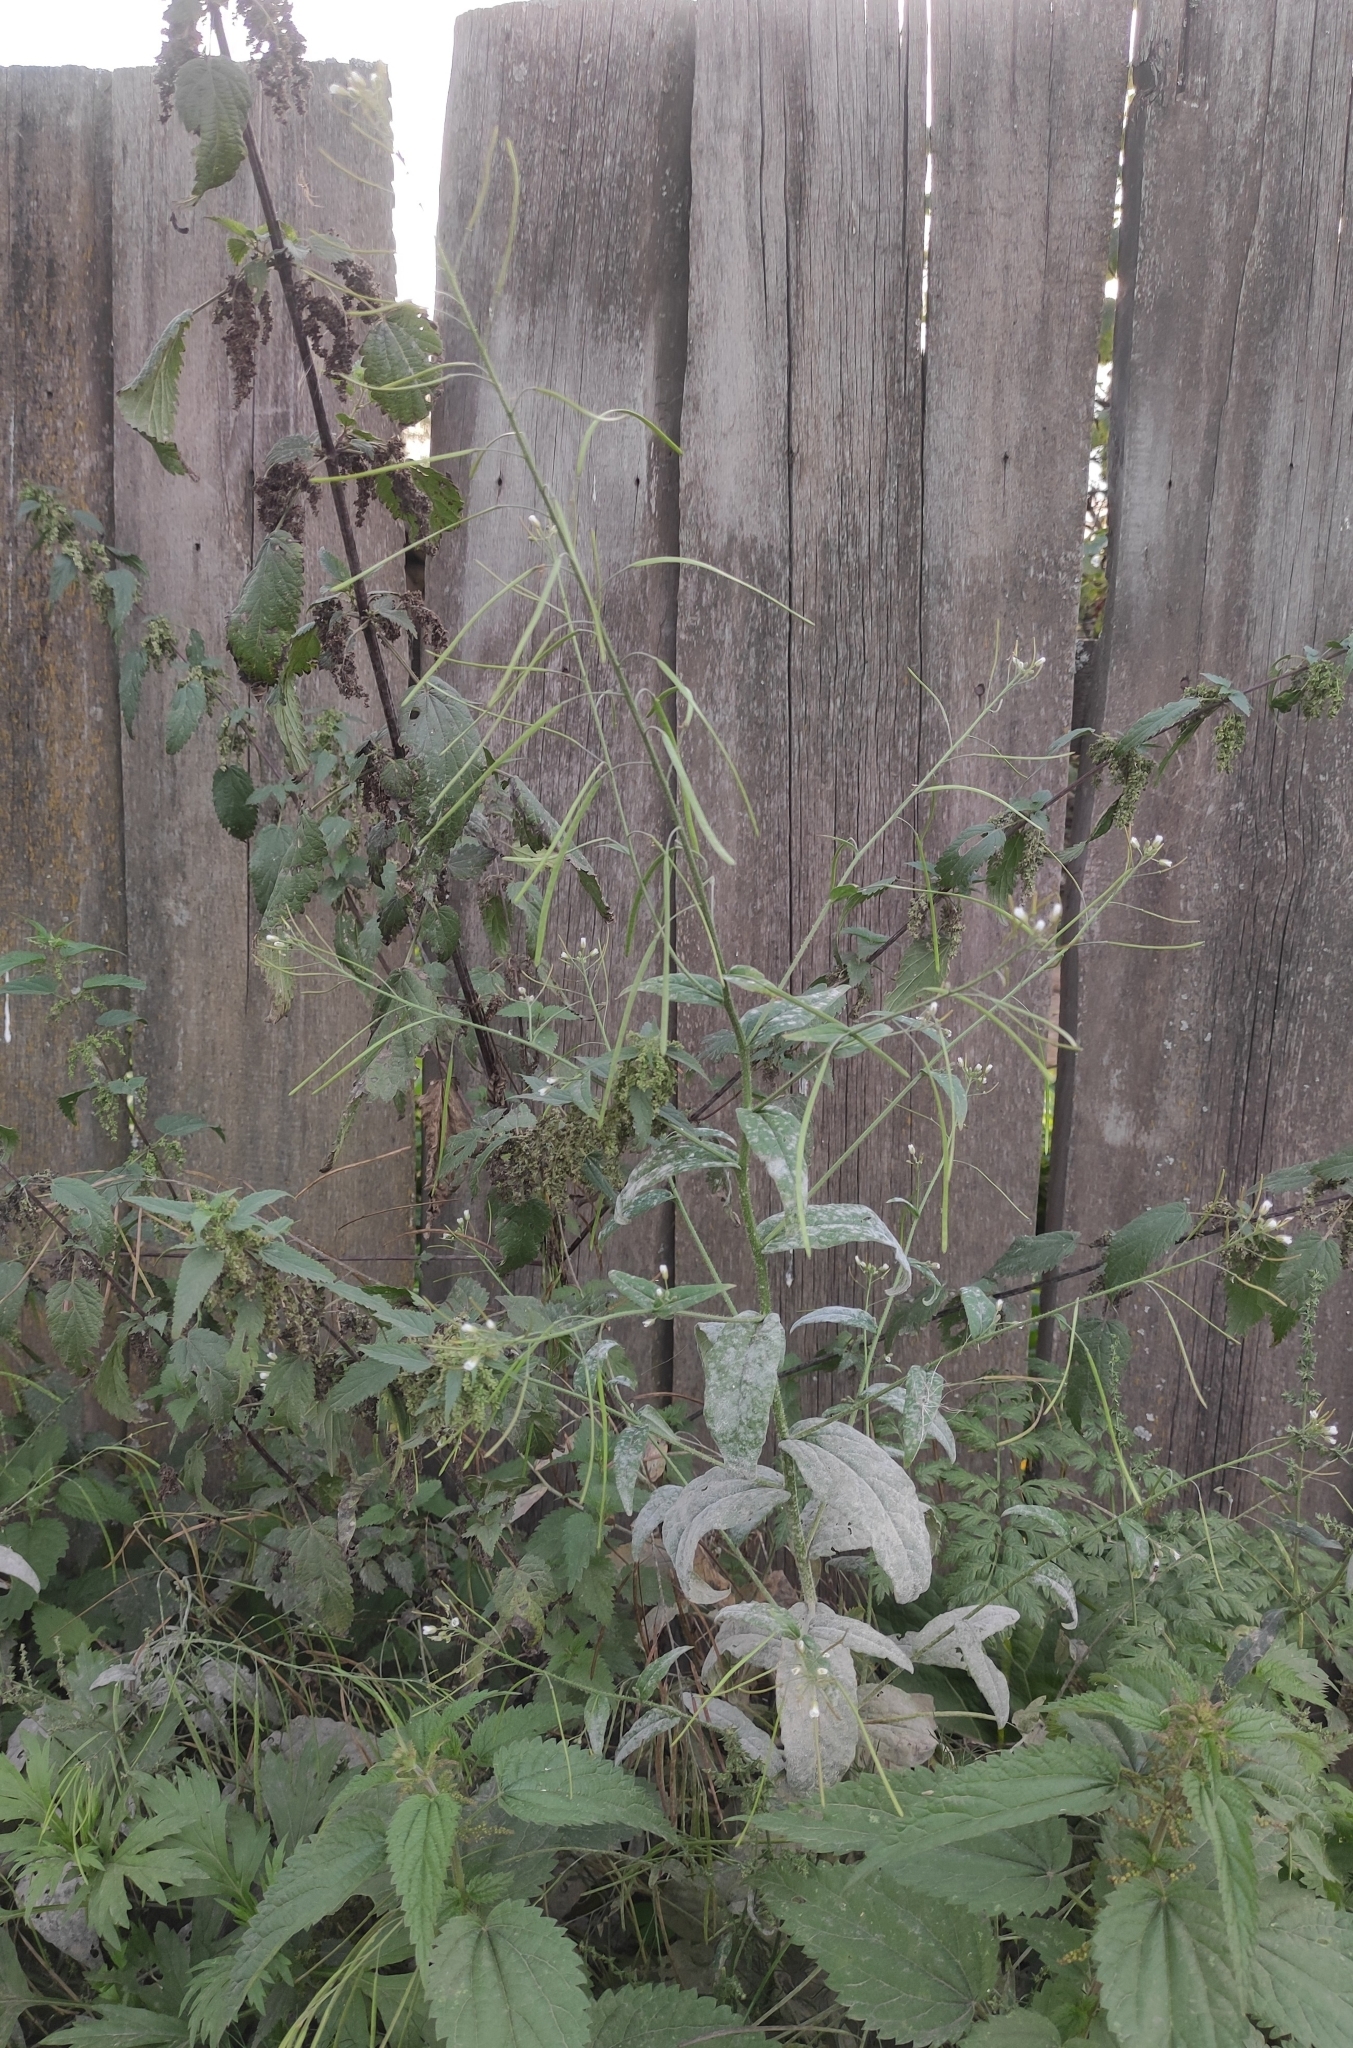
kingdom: Plantae
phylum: Tracheophyta
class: Magnoliopsida
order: Brassicales
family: Brassicaceae
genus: Catolobus
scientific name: Catolobus pendulus
